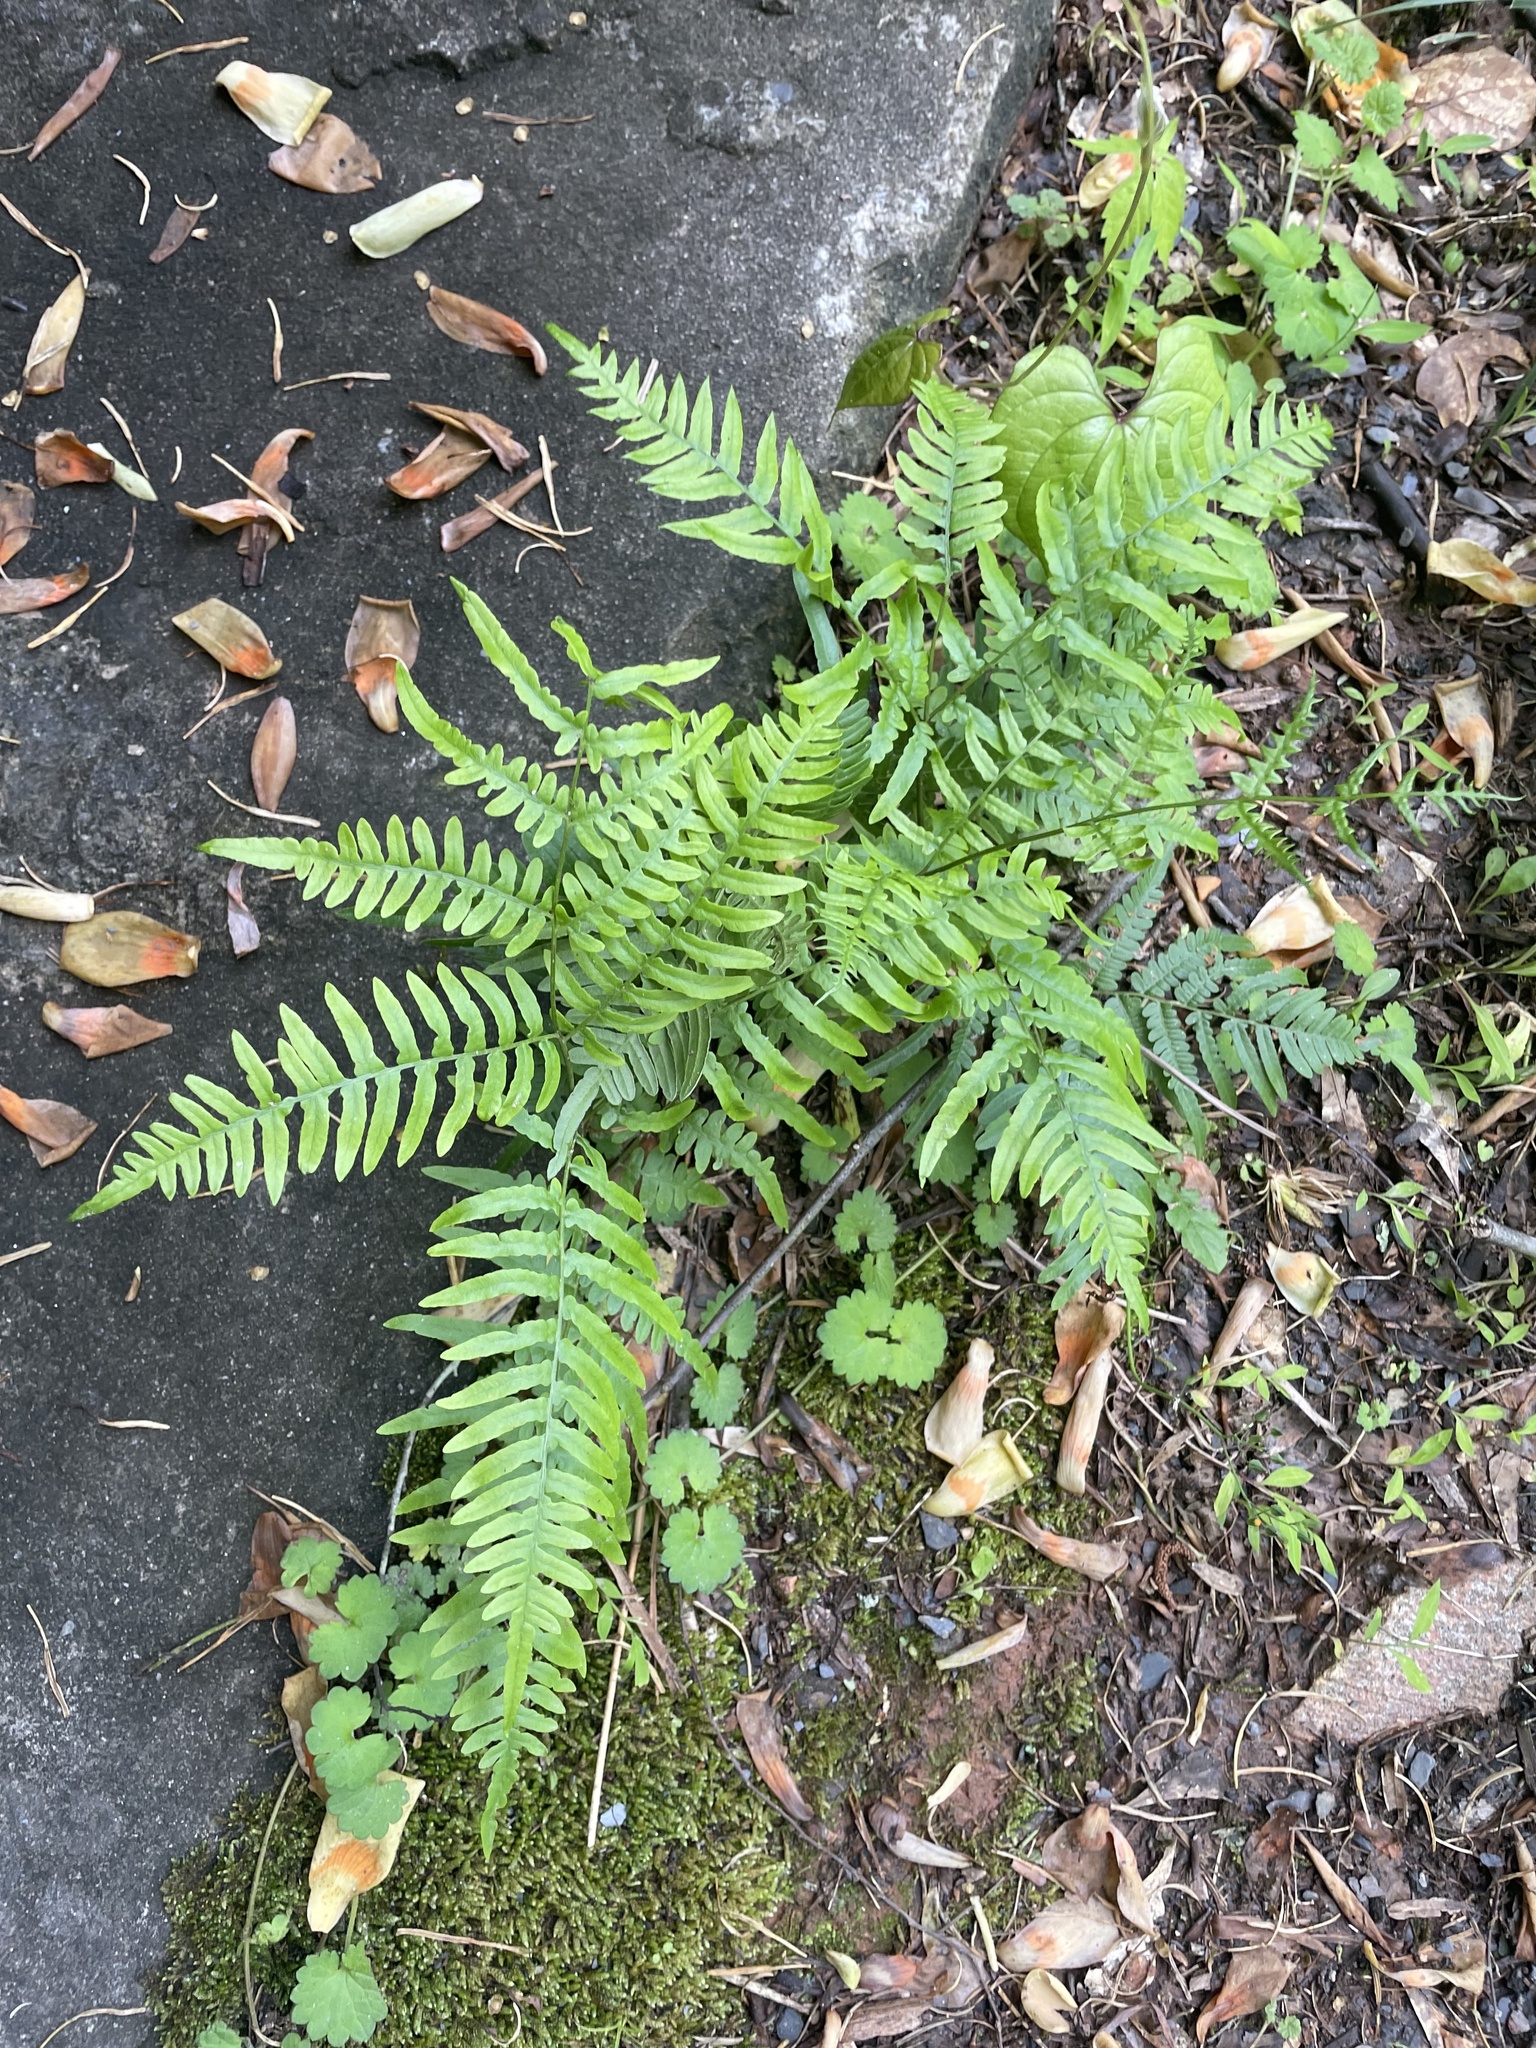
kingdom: Plantae
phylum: Tracheophyta
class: Polypodiopsida
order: Polypodiales
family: Dennstaedtiaceae
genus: Pteridium
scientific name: Pteridium
